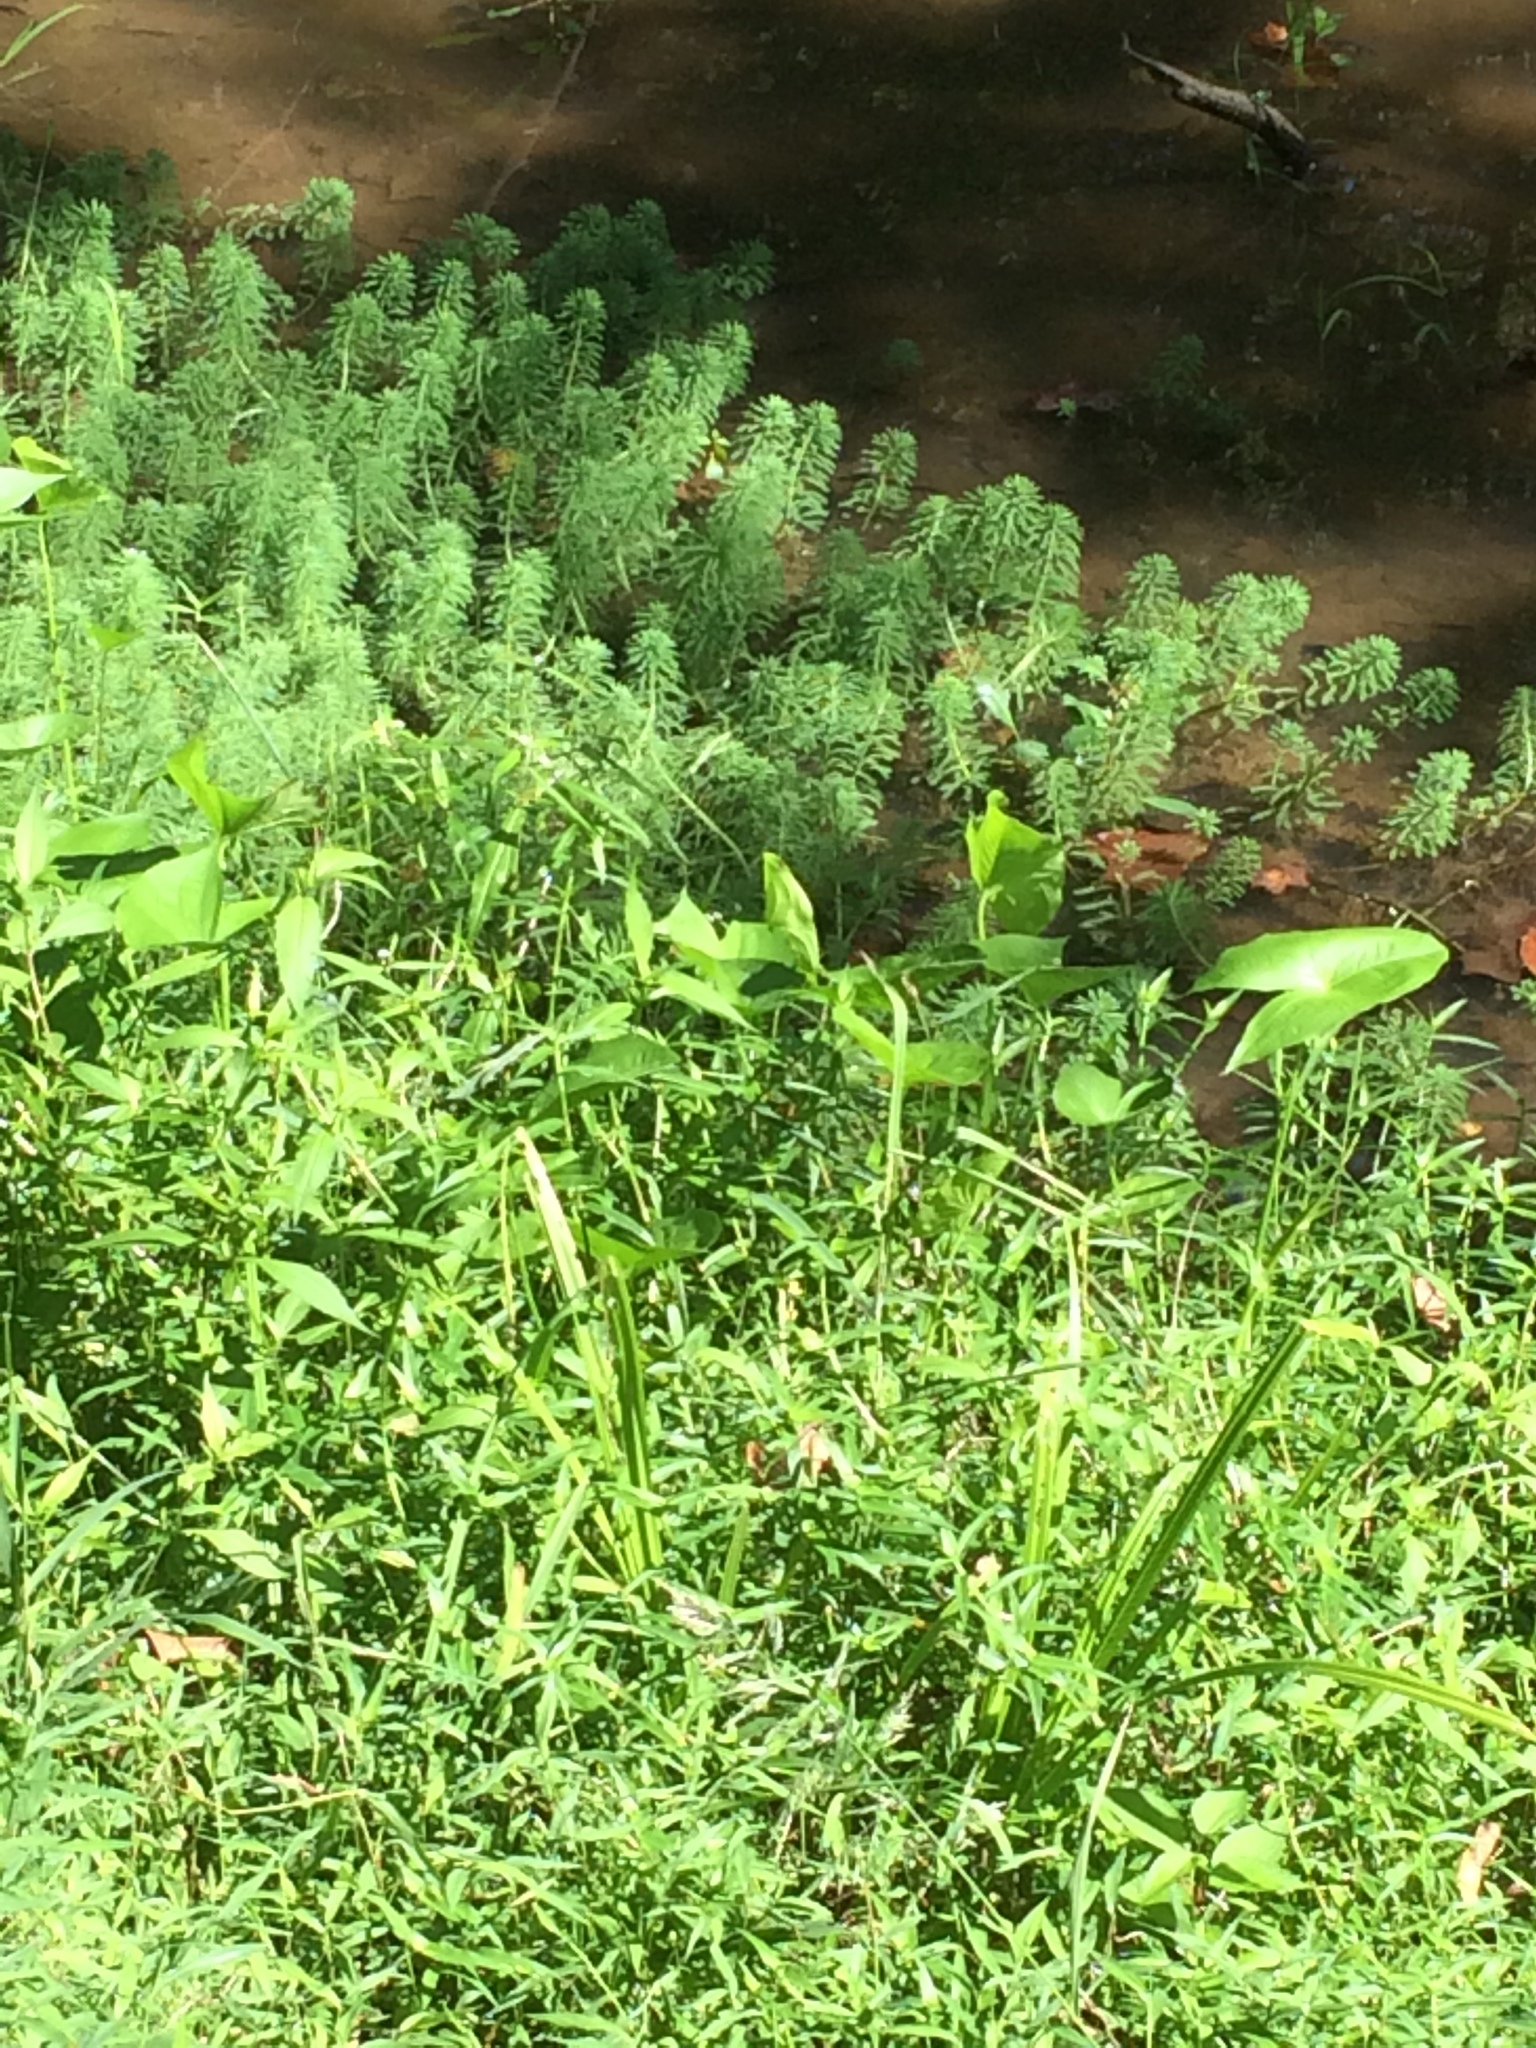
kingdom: Plantae
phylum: Tracheophyta
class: Magnoliopsida
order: Saxifragales
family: Haloragaceae
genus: Myriophyllum
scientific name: Myriophyllum aquaticum
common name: Parrot's feather
